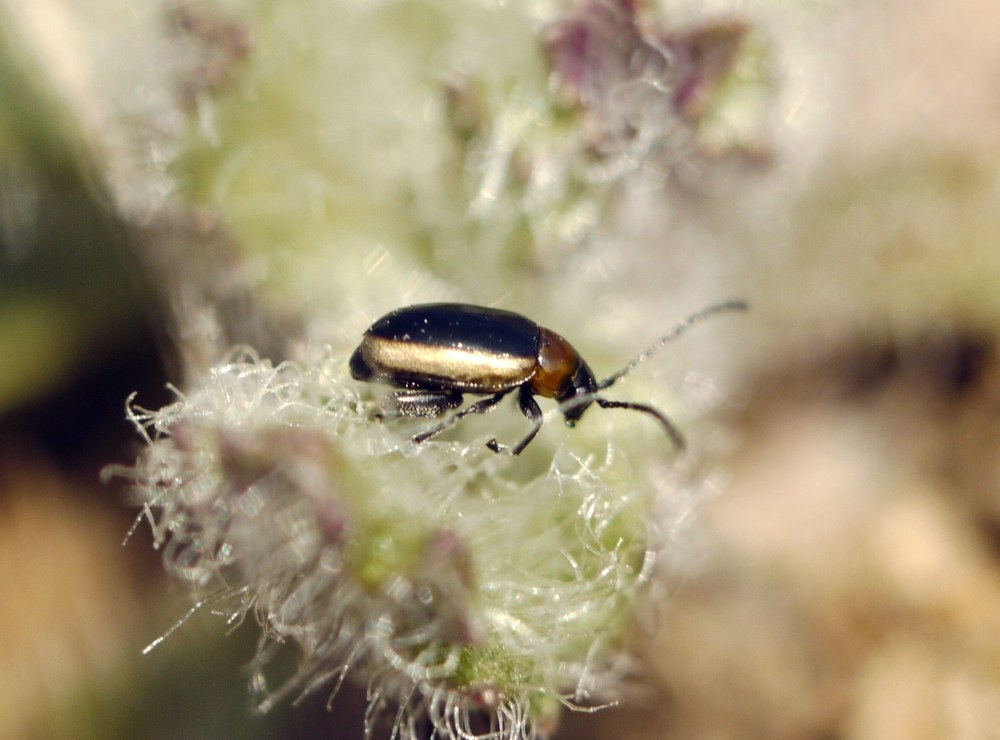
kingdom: Animalia
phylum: Arthropoda
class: Insecta
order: Coleoptera
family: Chrysomelidae
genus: Longitarsus
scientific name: Longitarsus dorsalis
